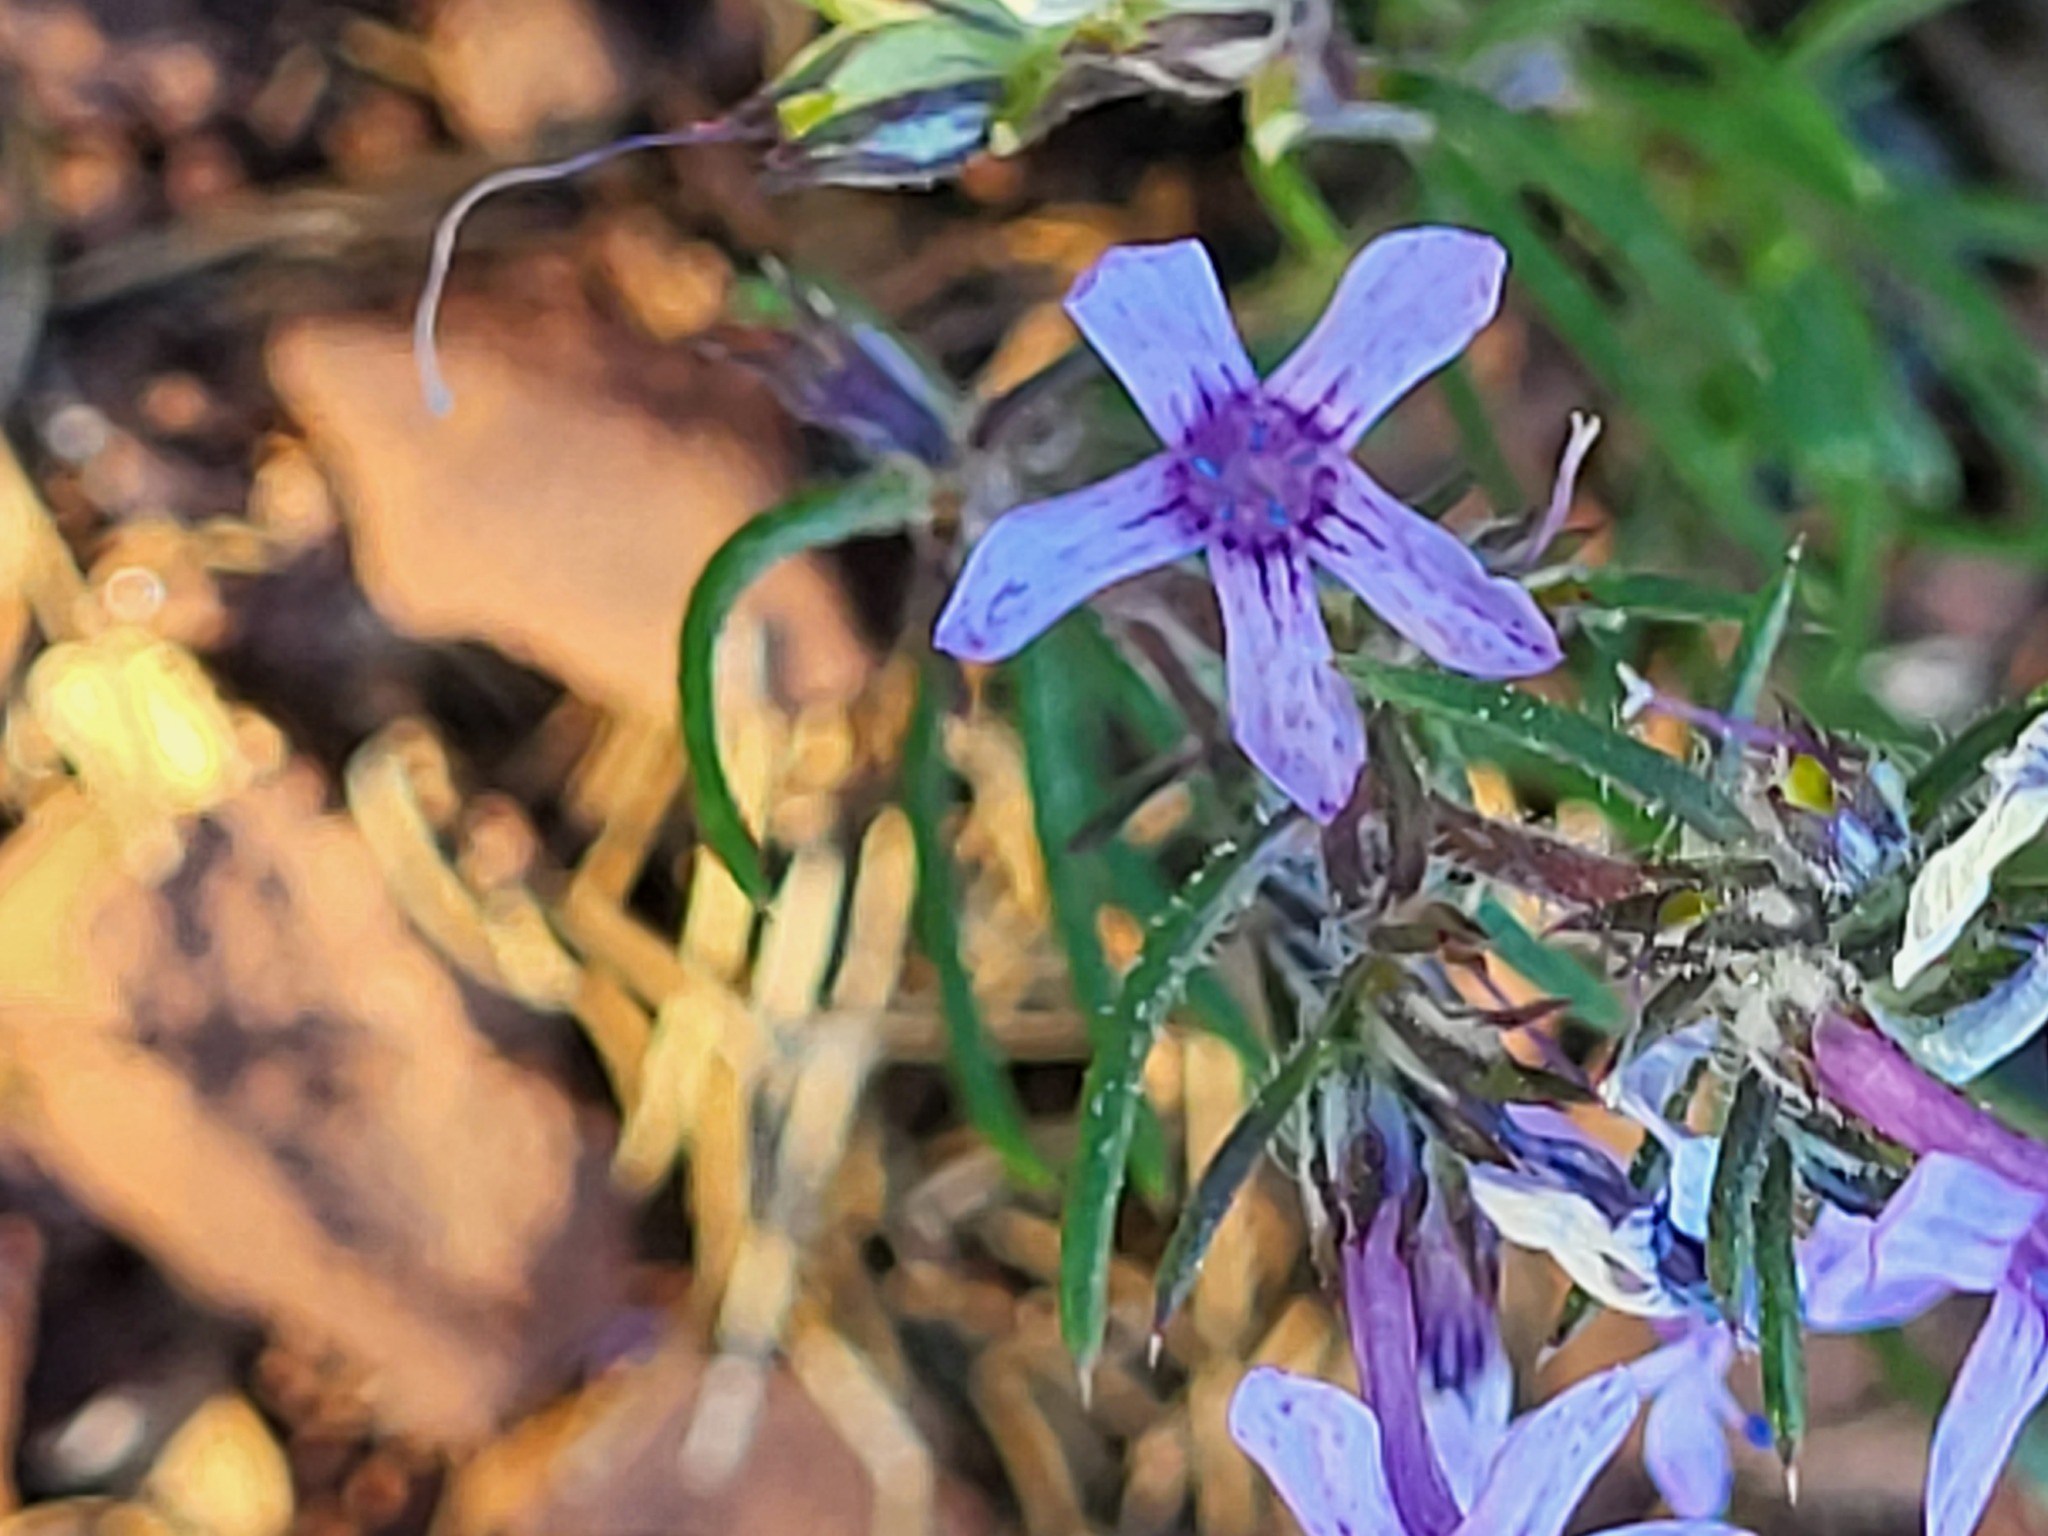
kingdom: Plantae
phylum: Tracheophyta
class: Magnoliopsida
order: Ericales
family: Polemoniaceae
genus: Ipomopsis
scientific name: Ipomopsis multiflora
